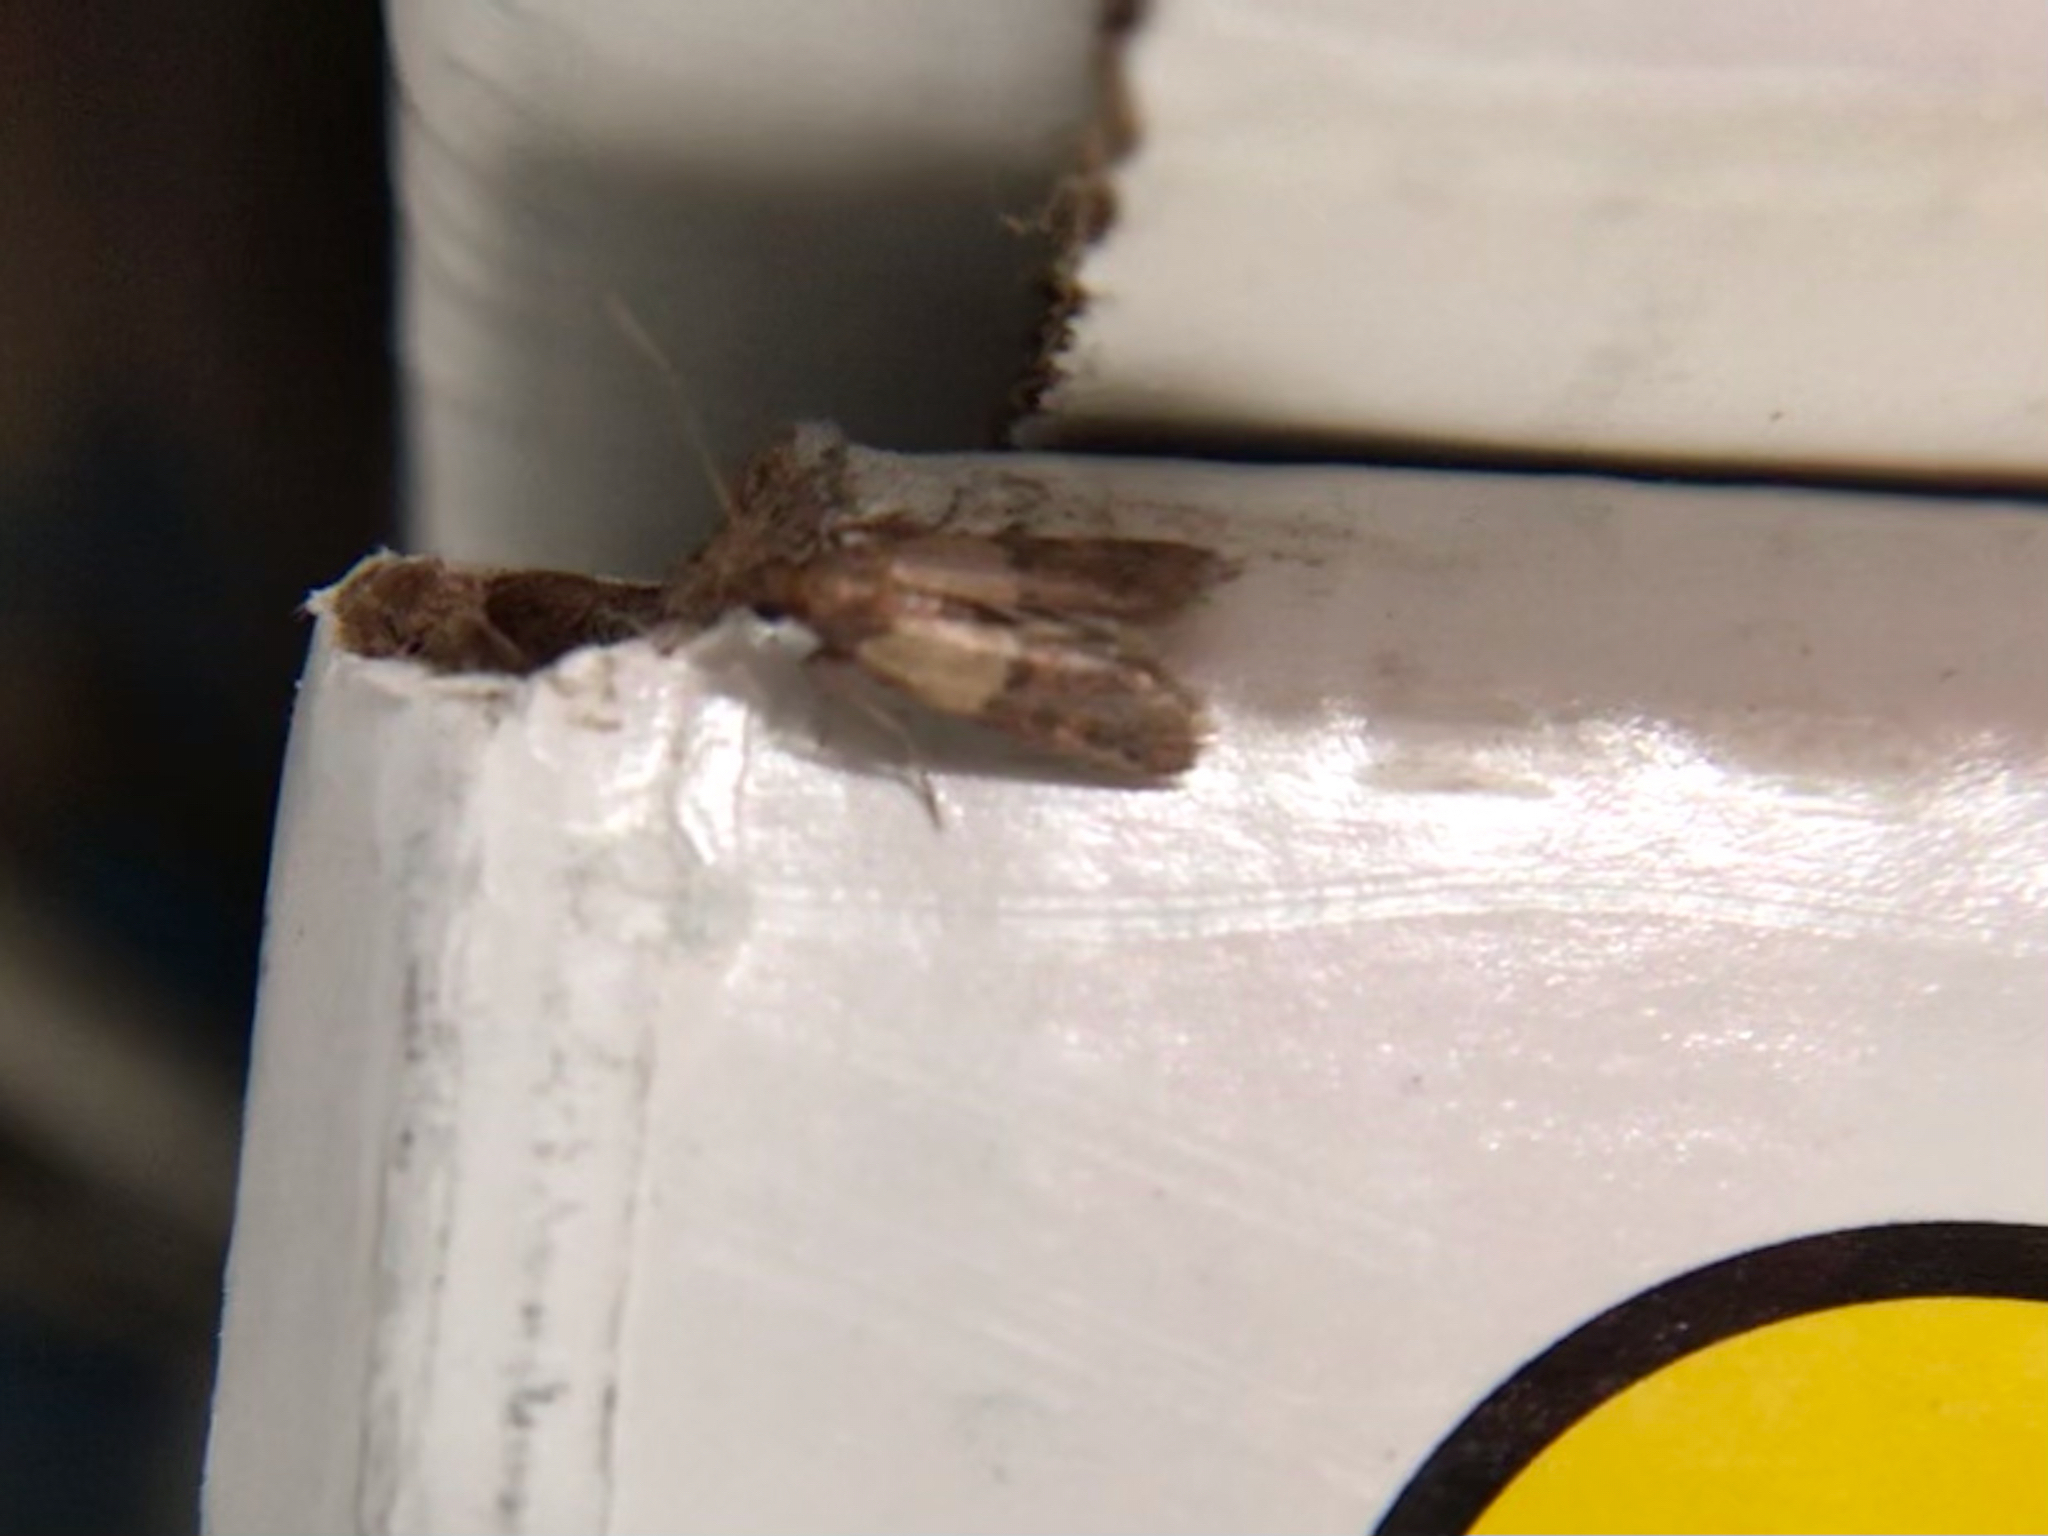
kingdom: Animalia
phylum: Arthropoda
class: Insecta
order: Lepidoptera
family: Pyralidae
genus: Plodia
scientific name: Plodia interpunctella
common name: Indian meal moth
